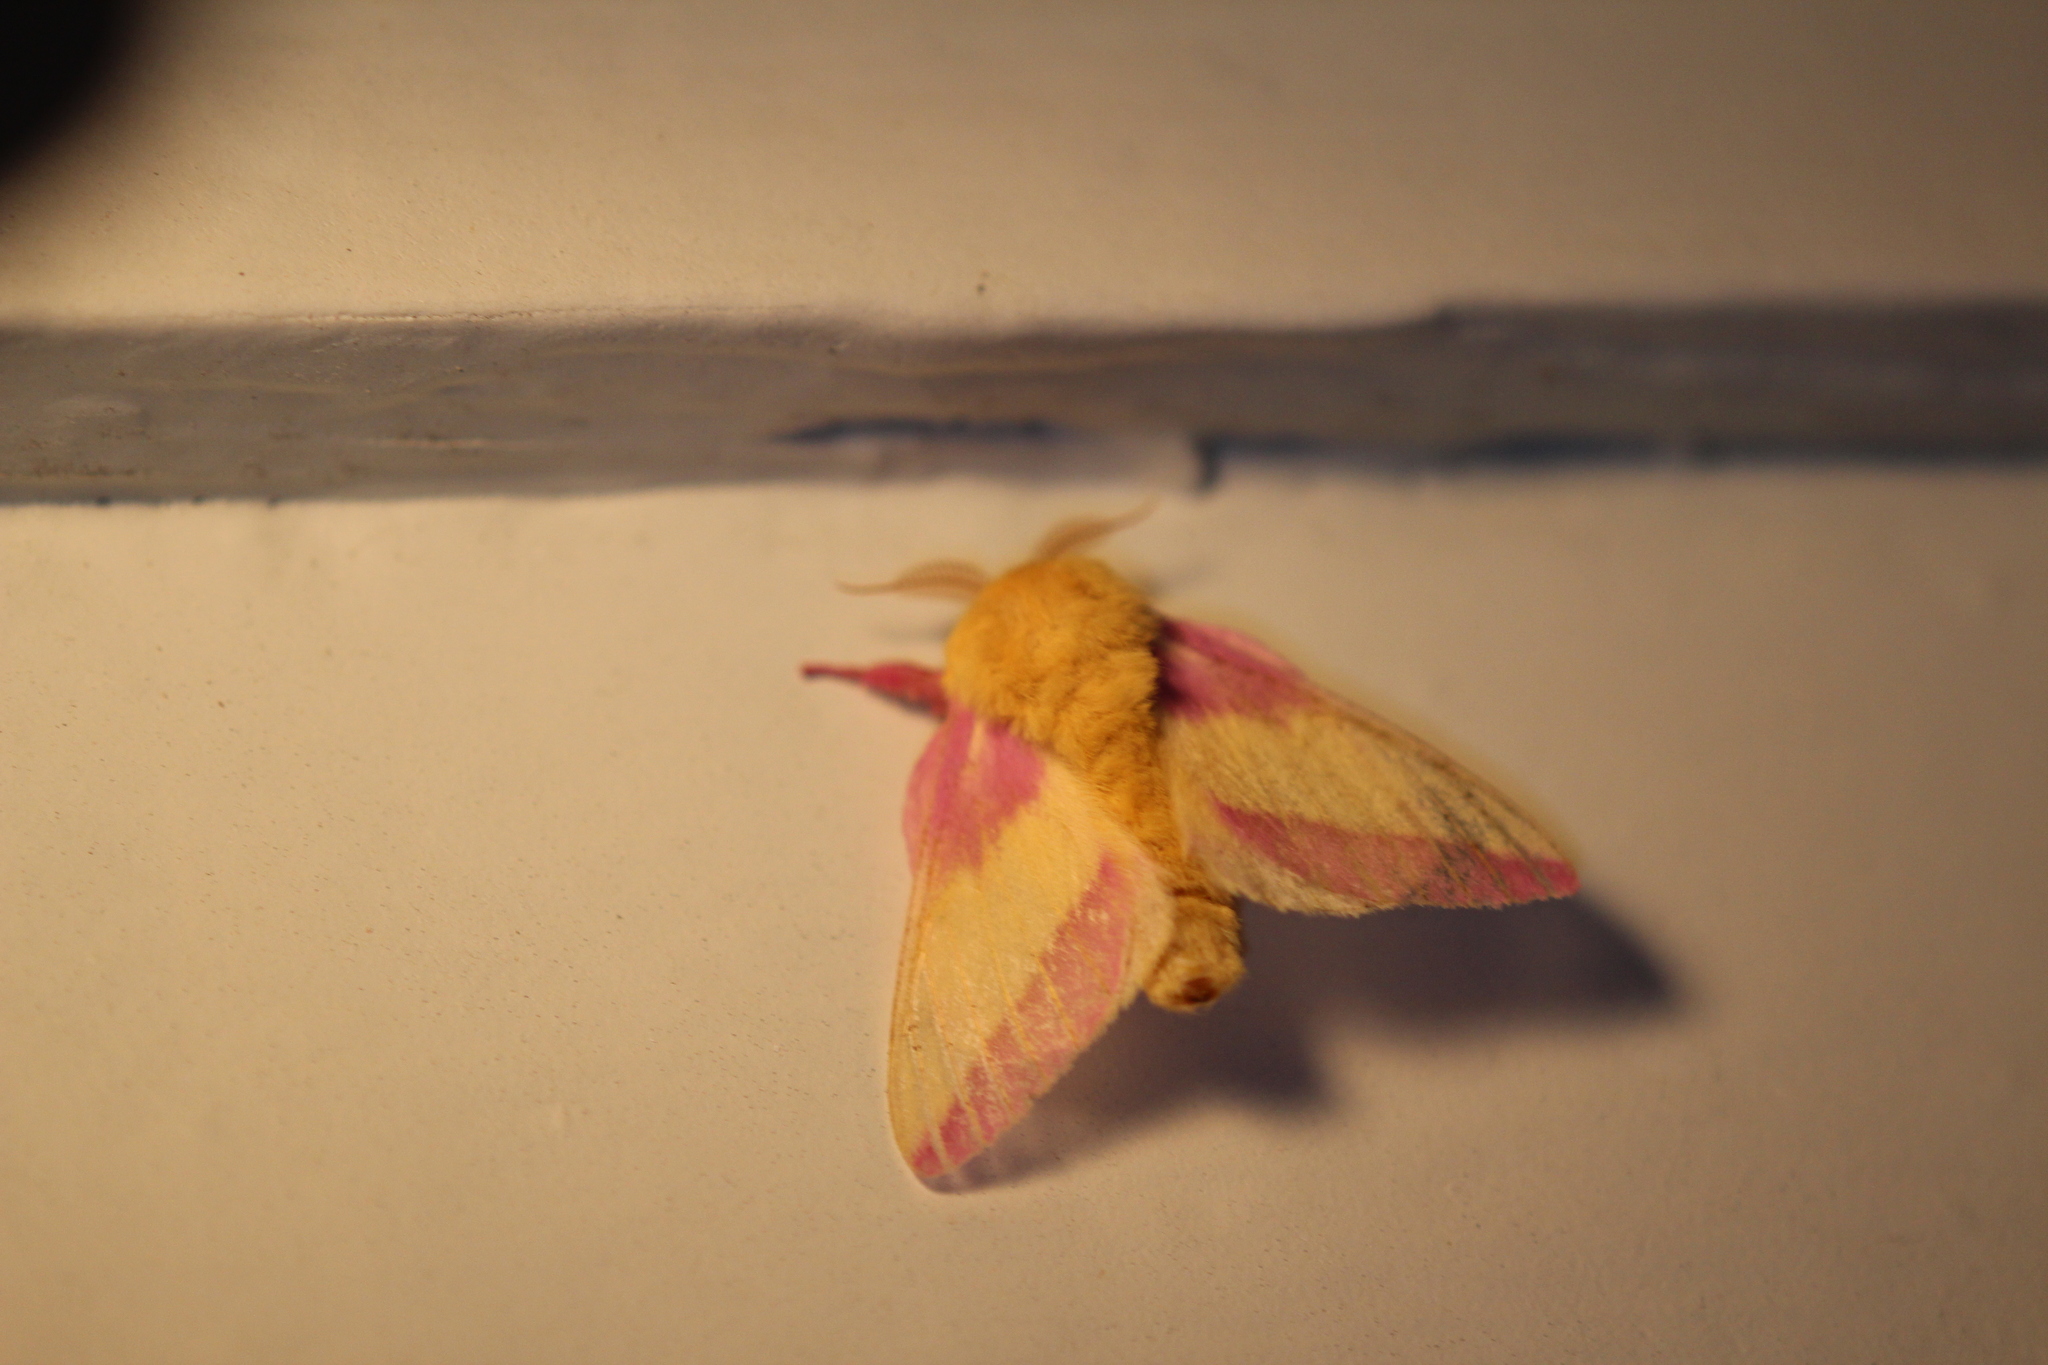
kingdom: Animalia
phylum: Arthropoda
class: Insecta
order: Lepidoptera
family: Saturniidae
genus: Dryocampa
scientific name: Dryocampa rubicunda
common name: Rosy maple moth
